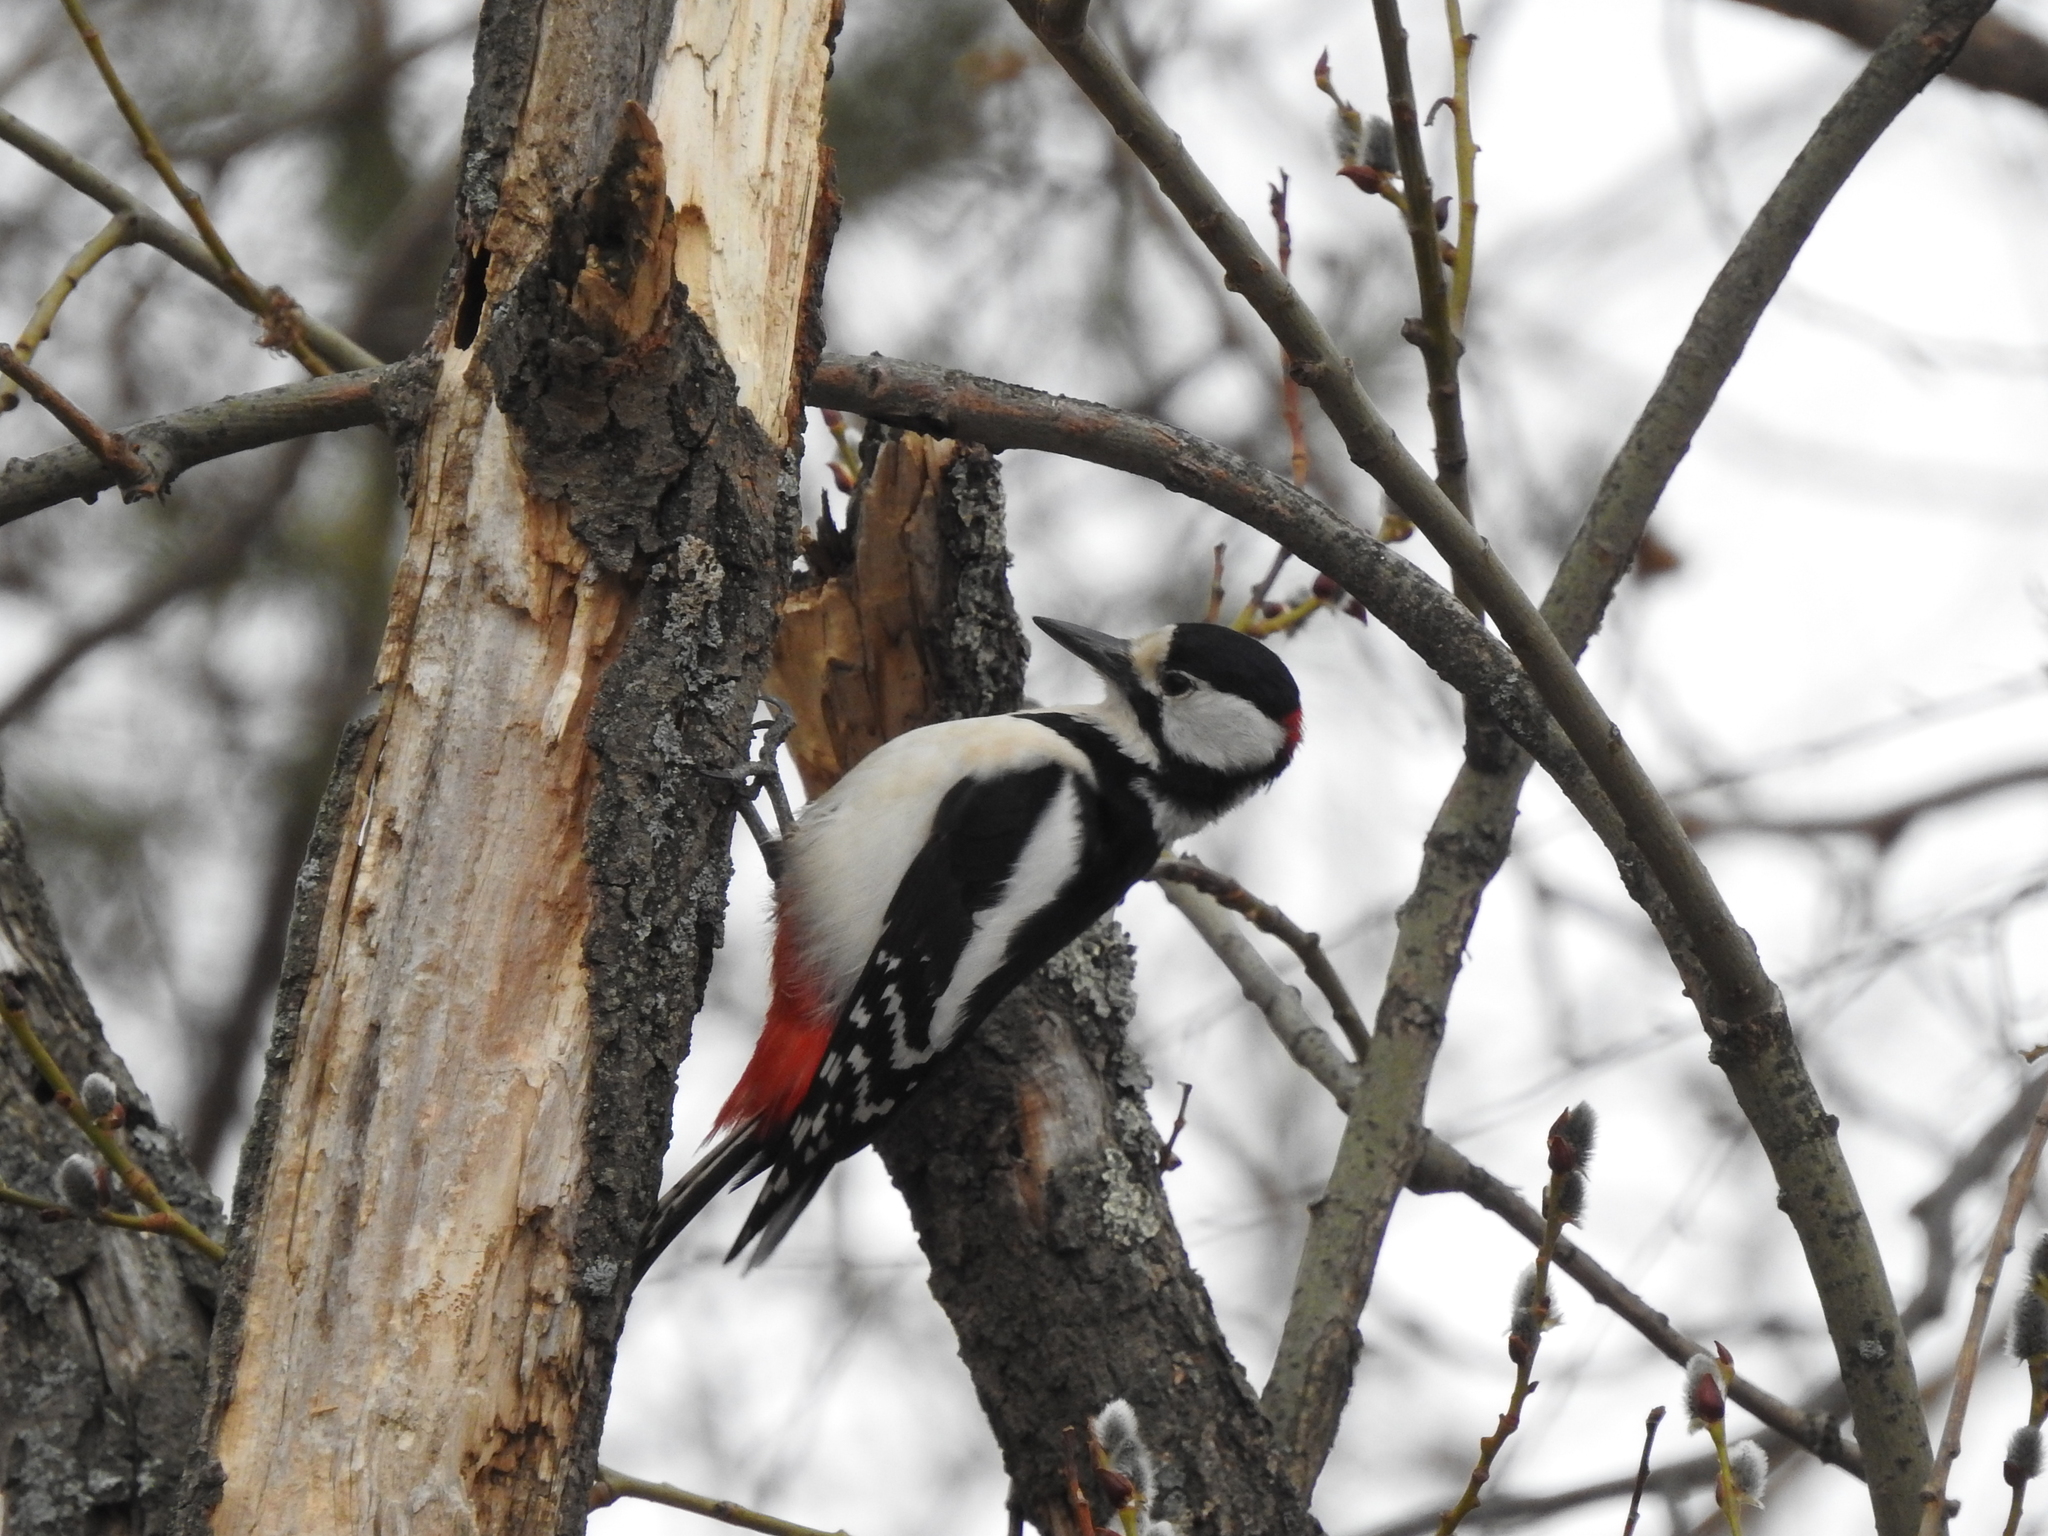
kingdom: Animalia
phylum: Chordata
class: Aves
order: Piciformes
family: Picidae
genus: Dendrocopos
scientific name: Dendrocopos major
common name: Great spotted woodpecker
